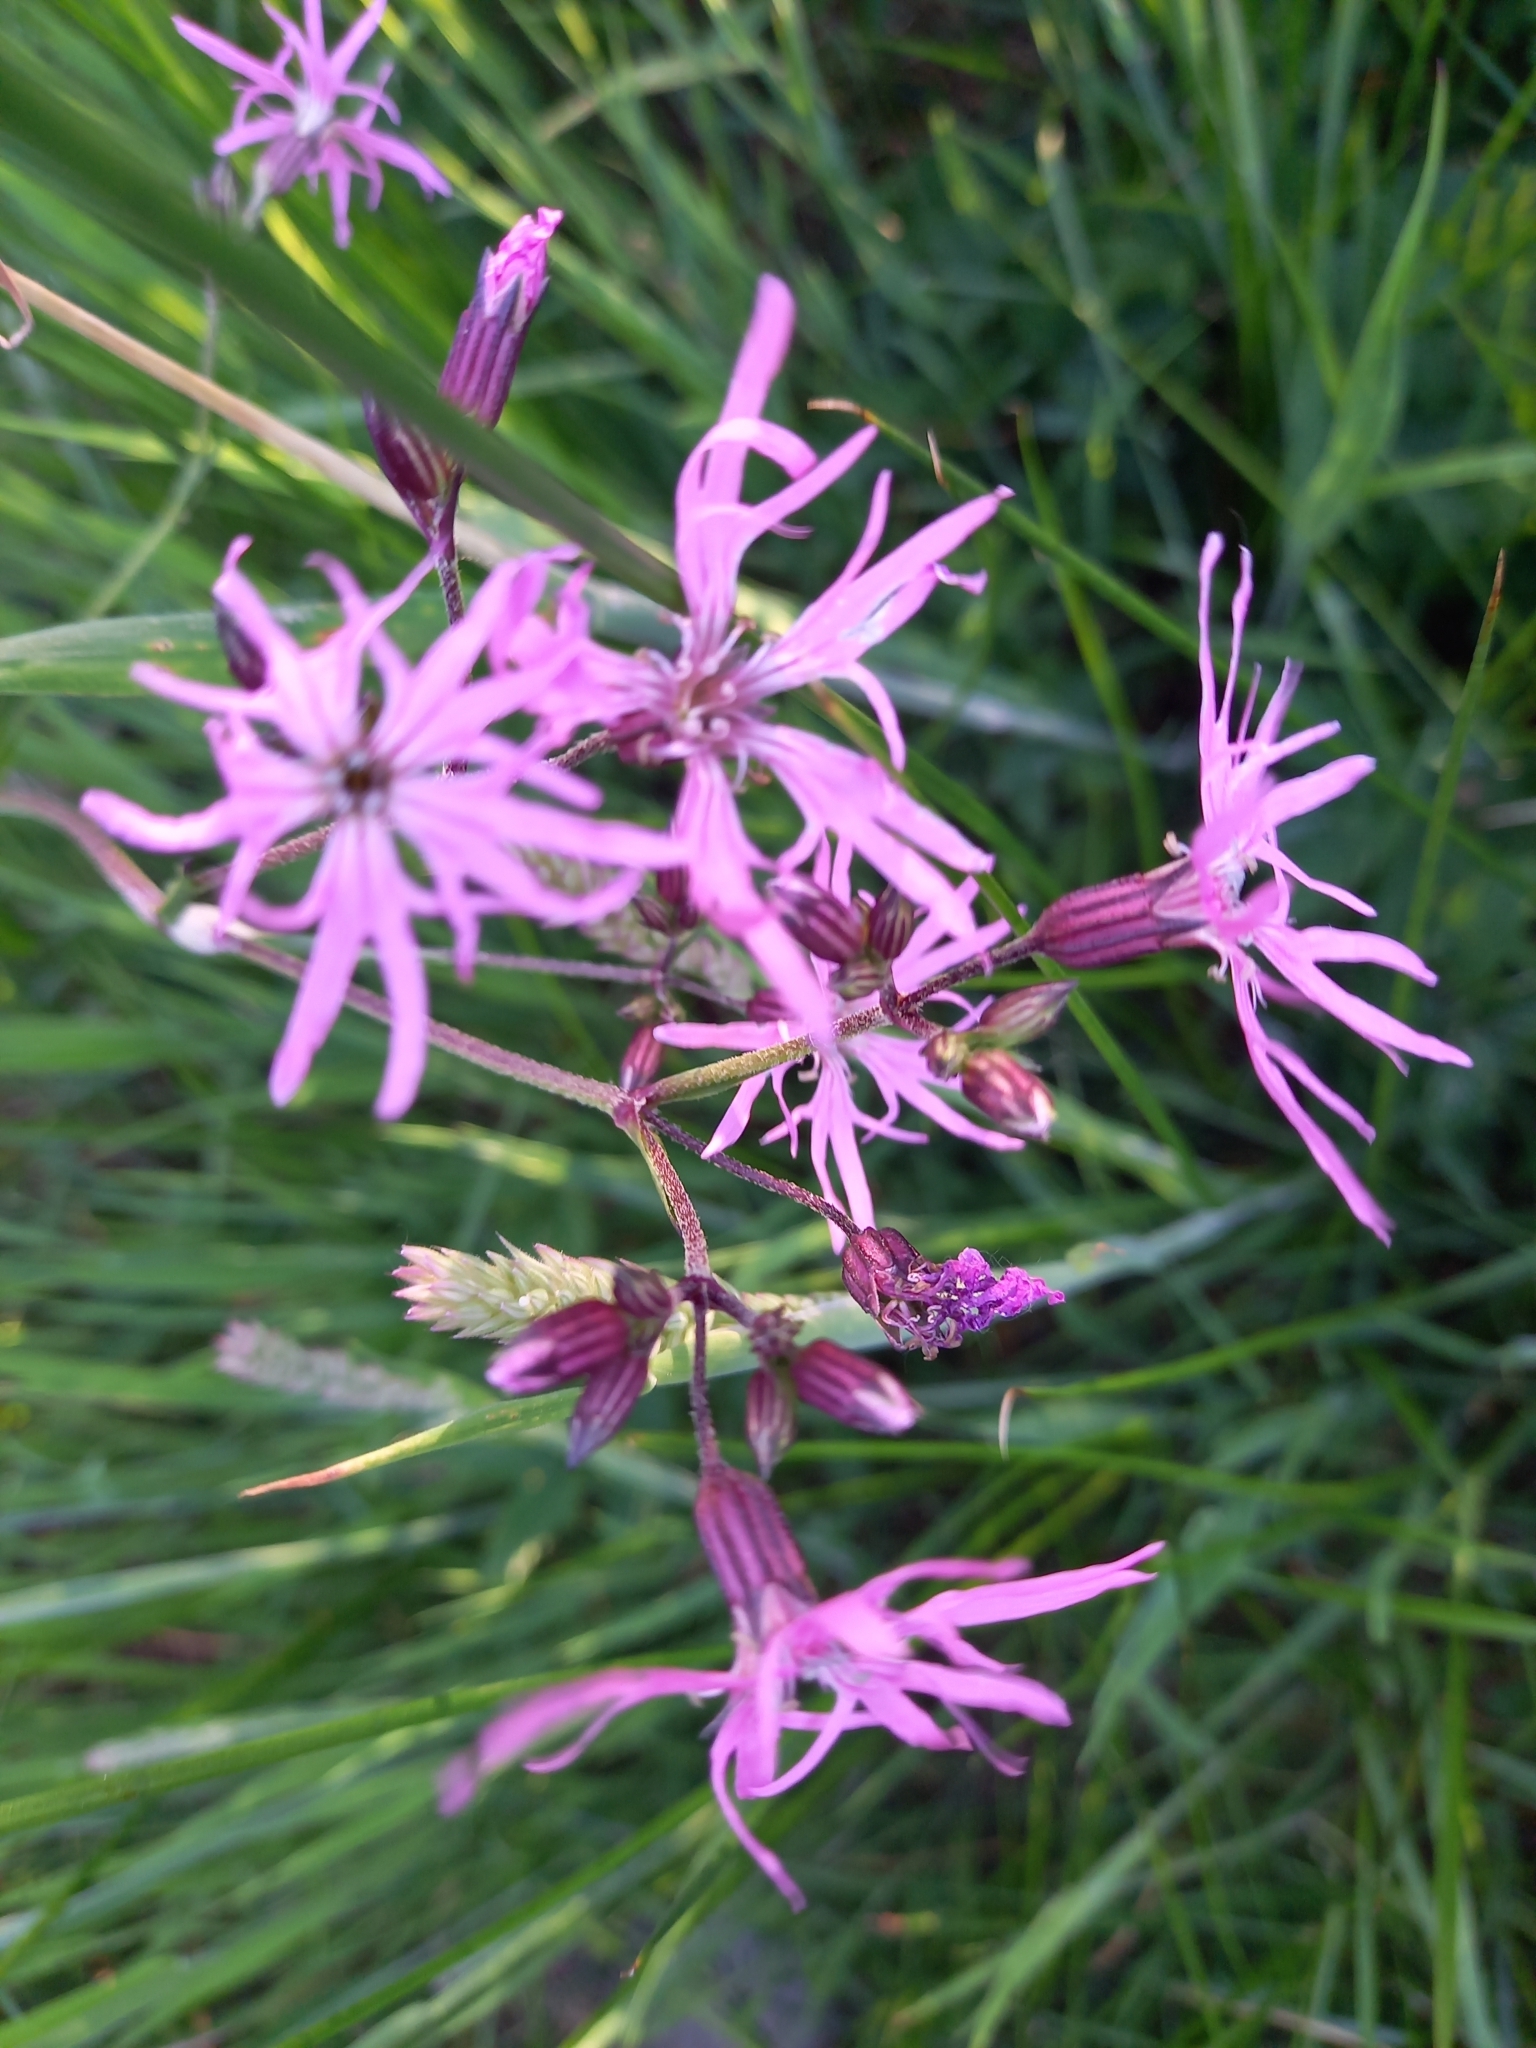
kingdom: Plantae
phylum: Tracheophyta
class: Magnoliopsida
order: Caryophyllales
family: Caryophyllaceae
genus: Silene
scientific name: Silene flos-cuculi
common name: Ragged-robin
